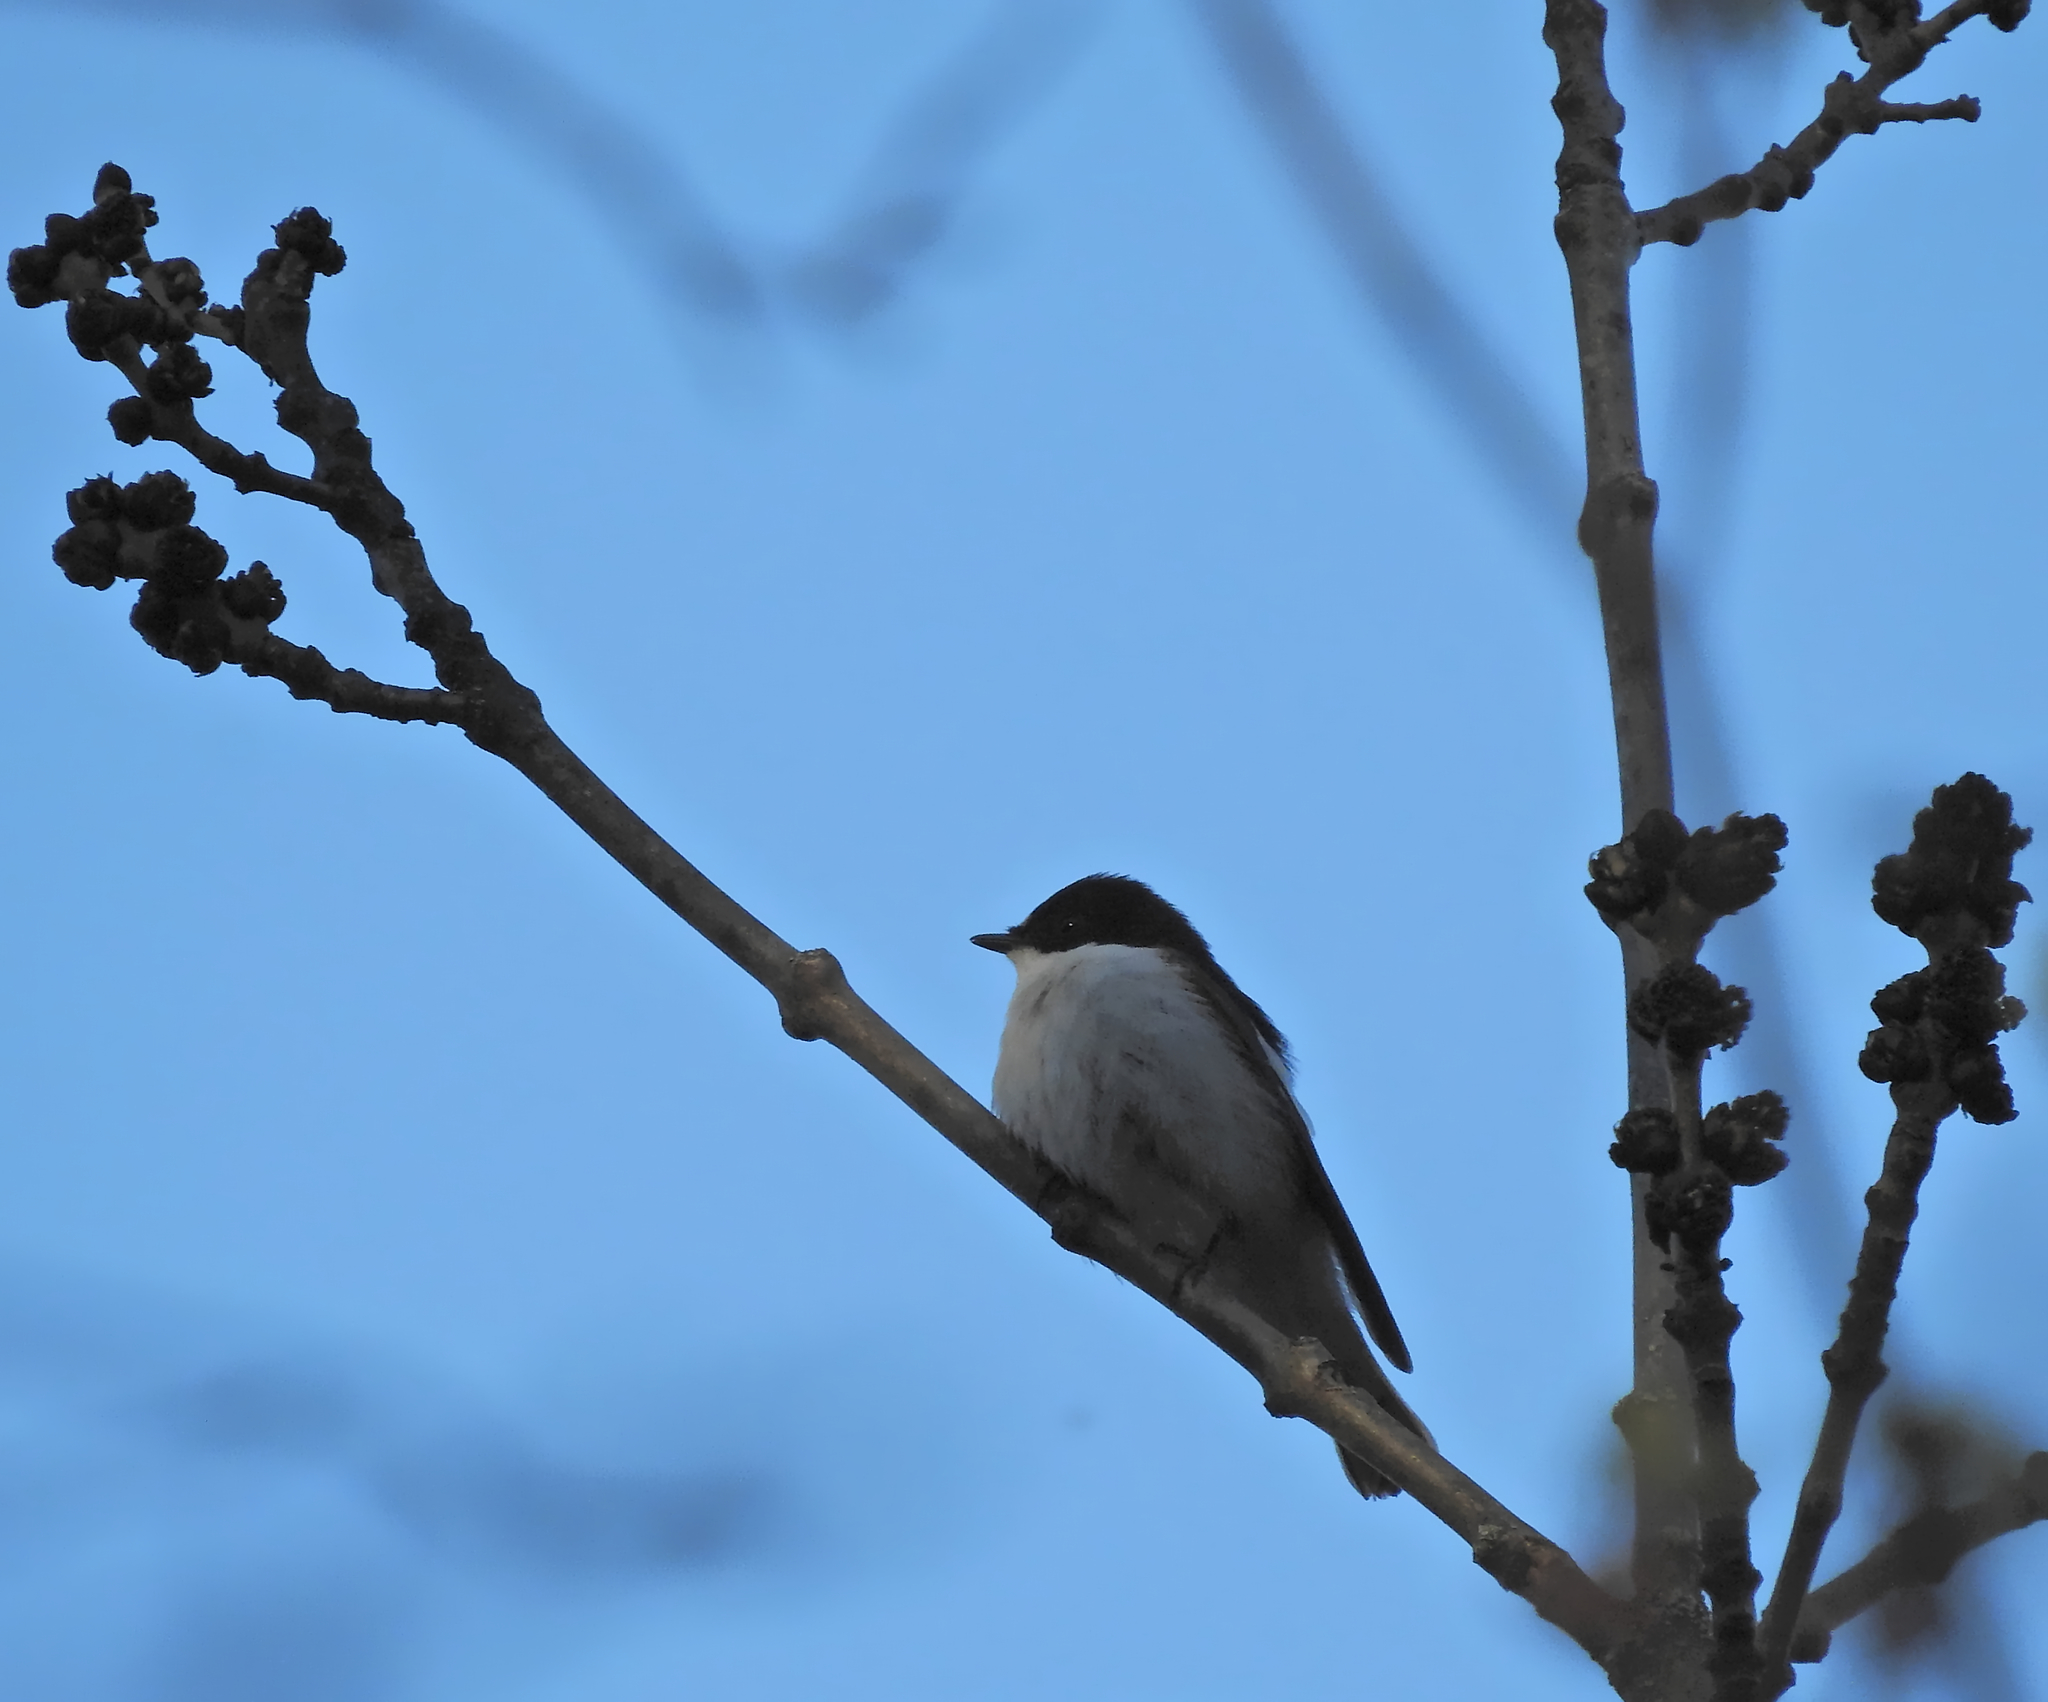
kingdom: Animalia
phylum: Chordata
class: Aves
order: Passeriformes
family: Muscicapidae
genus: Ficedula
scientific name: Ficedula hypoleuca
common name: European pied flycatcher
